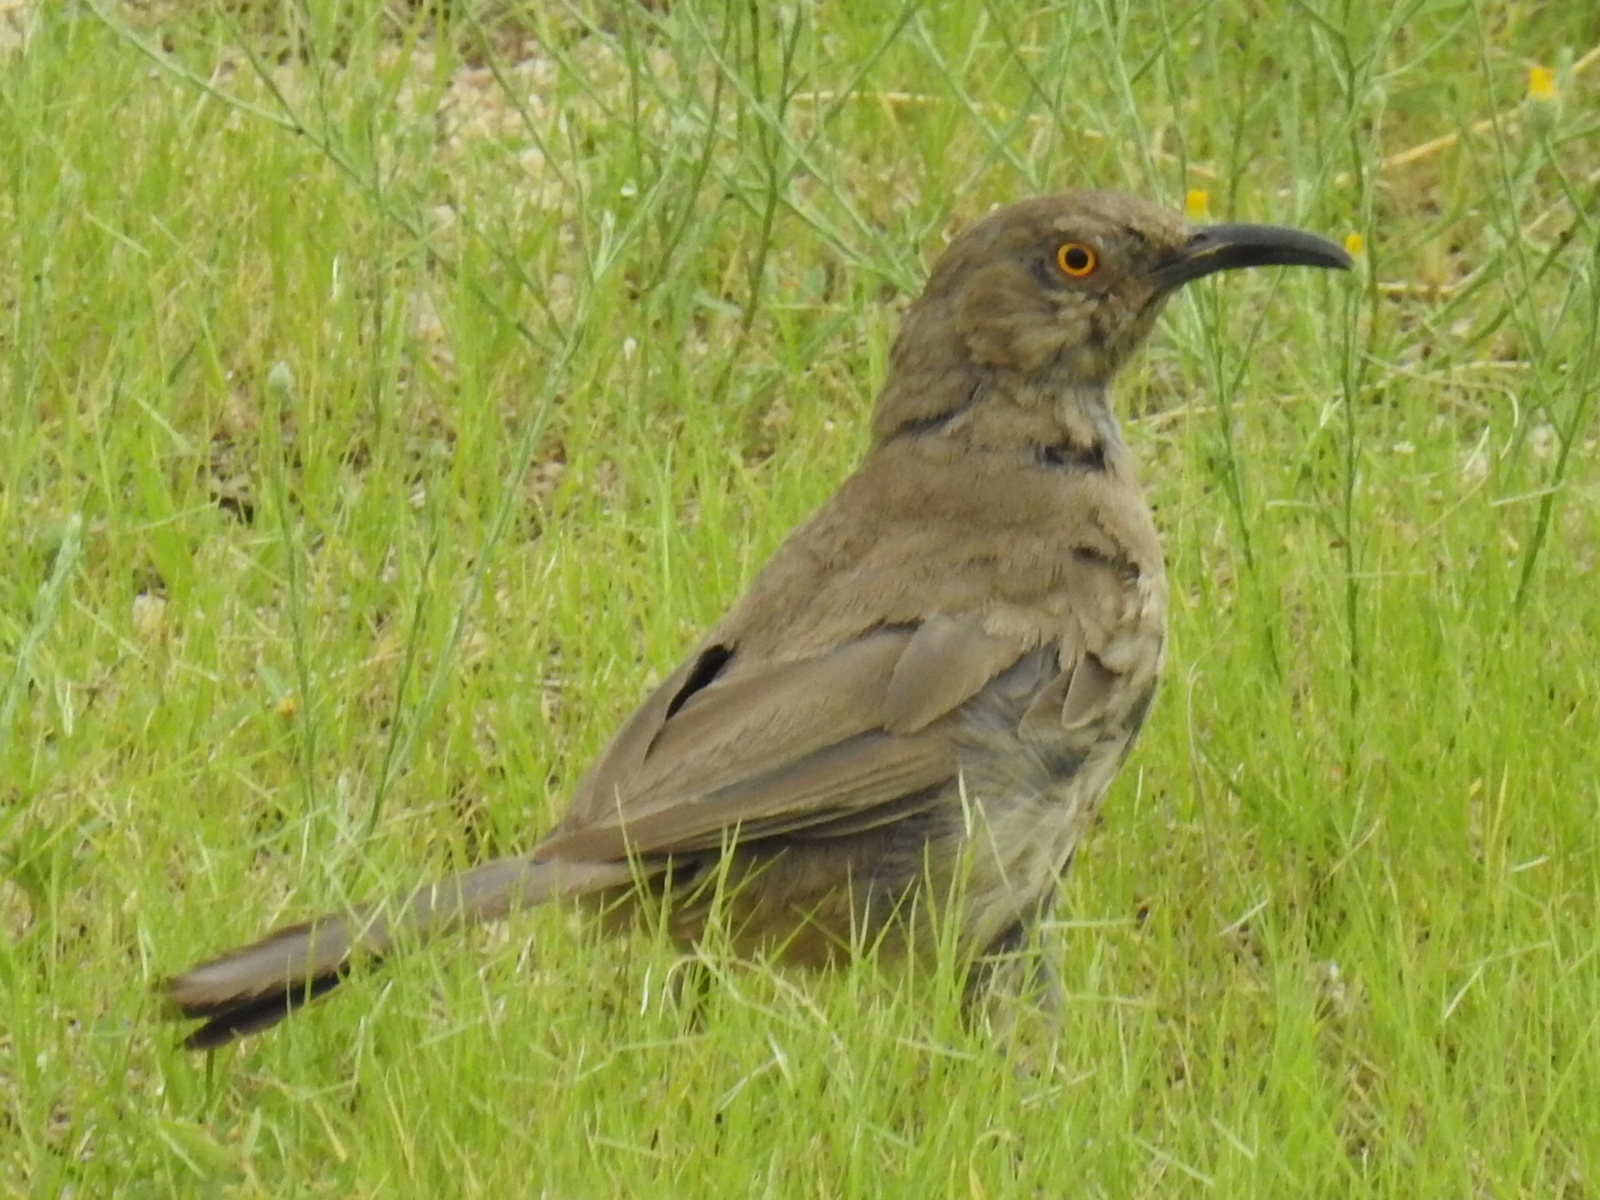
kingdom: Animalia
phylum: Chordata
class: Aves
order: Passeriformes
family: Mimidae
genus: Toxostoma
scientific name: Toxostoma curvirostre
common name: Curve-billed thrasher
